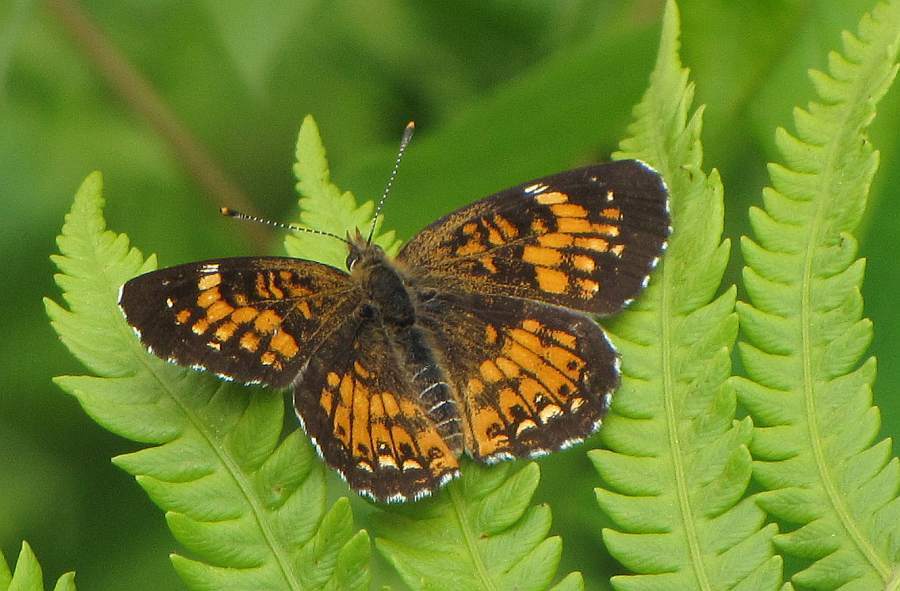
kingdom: Animalia
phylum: Arthropoda
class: Insecta
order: Lepidoptera
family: Nymphalidae
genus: Chlosyne
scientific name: Chlosyne harrisii
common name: Harris's checkerspot
